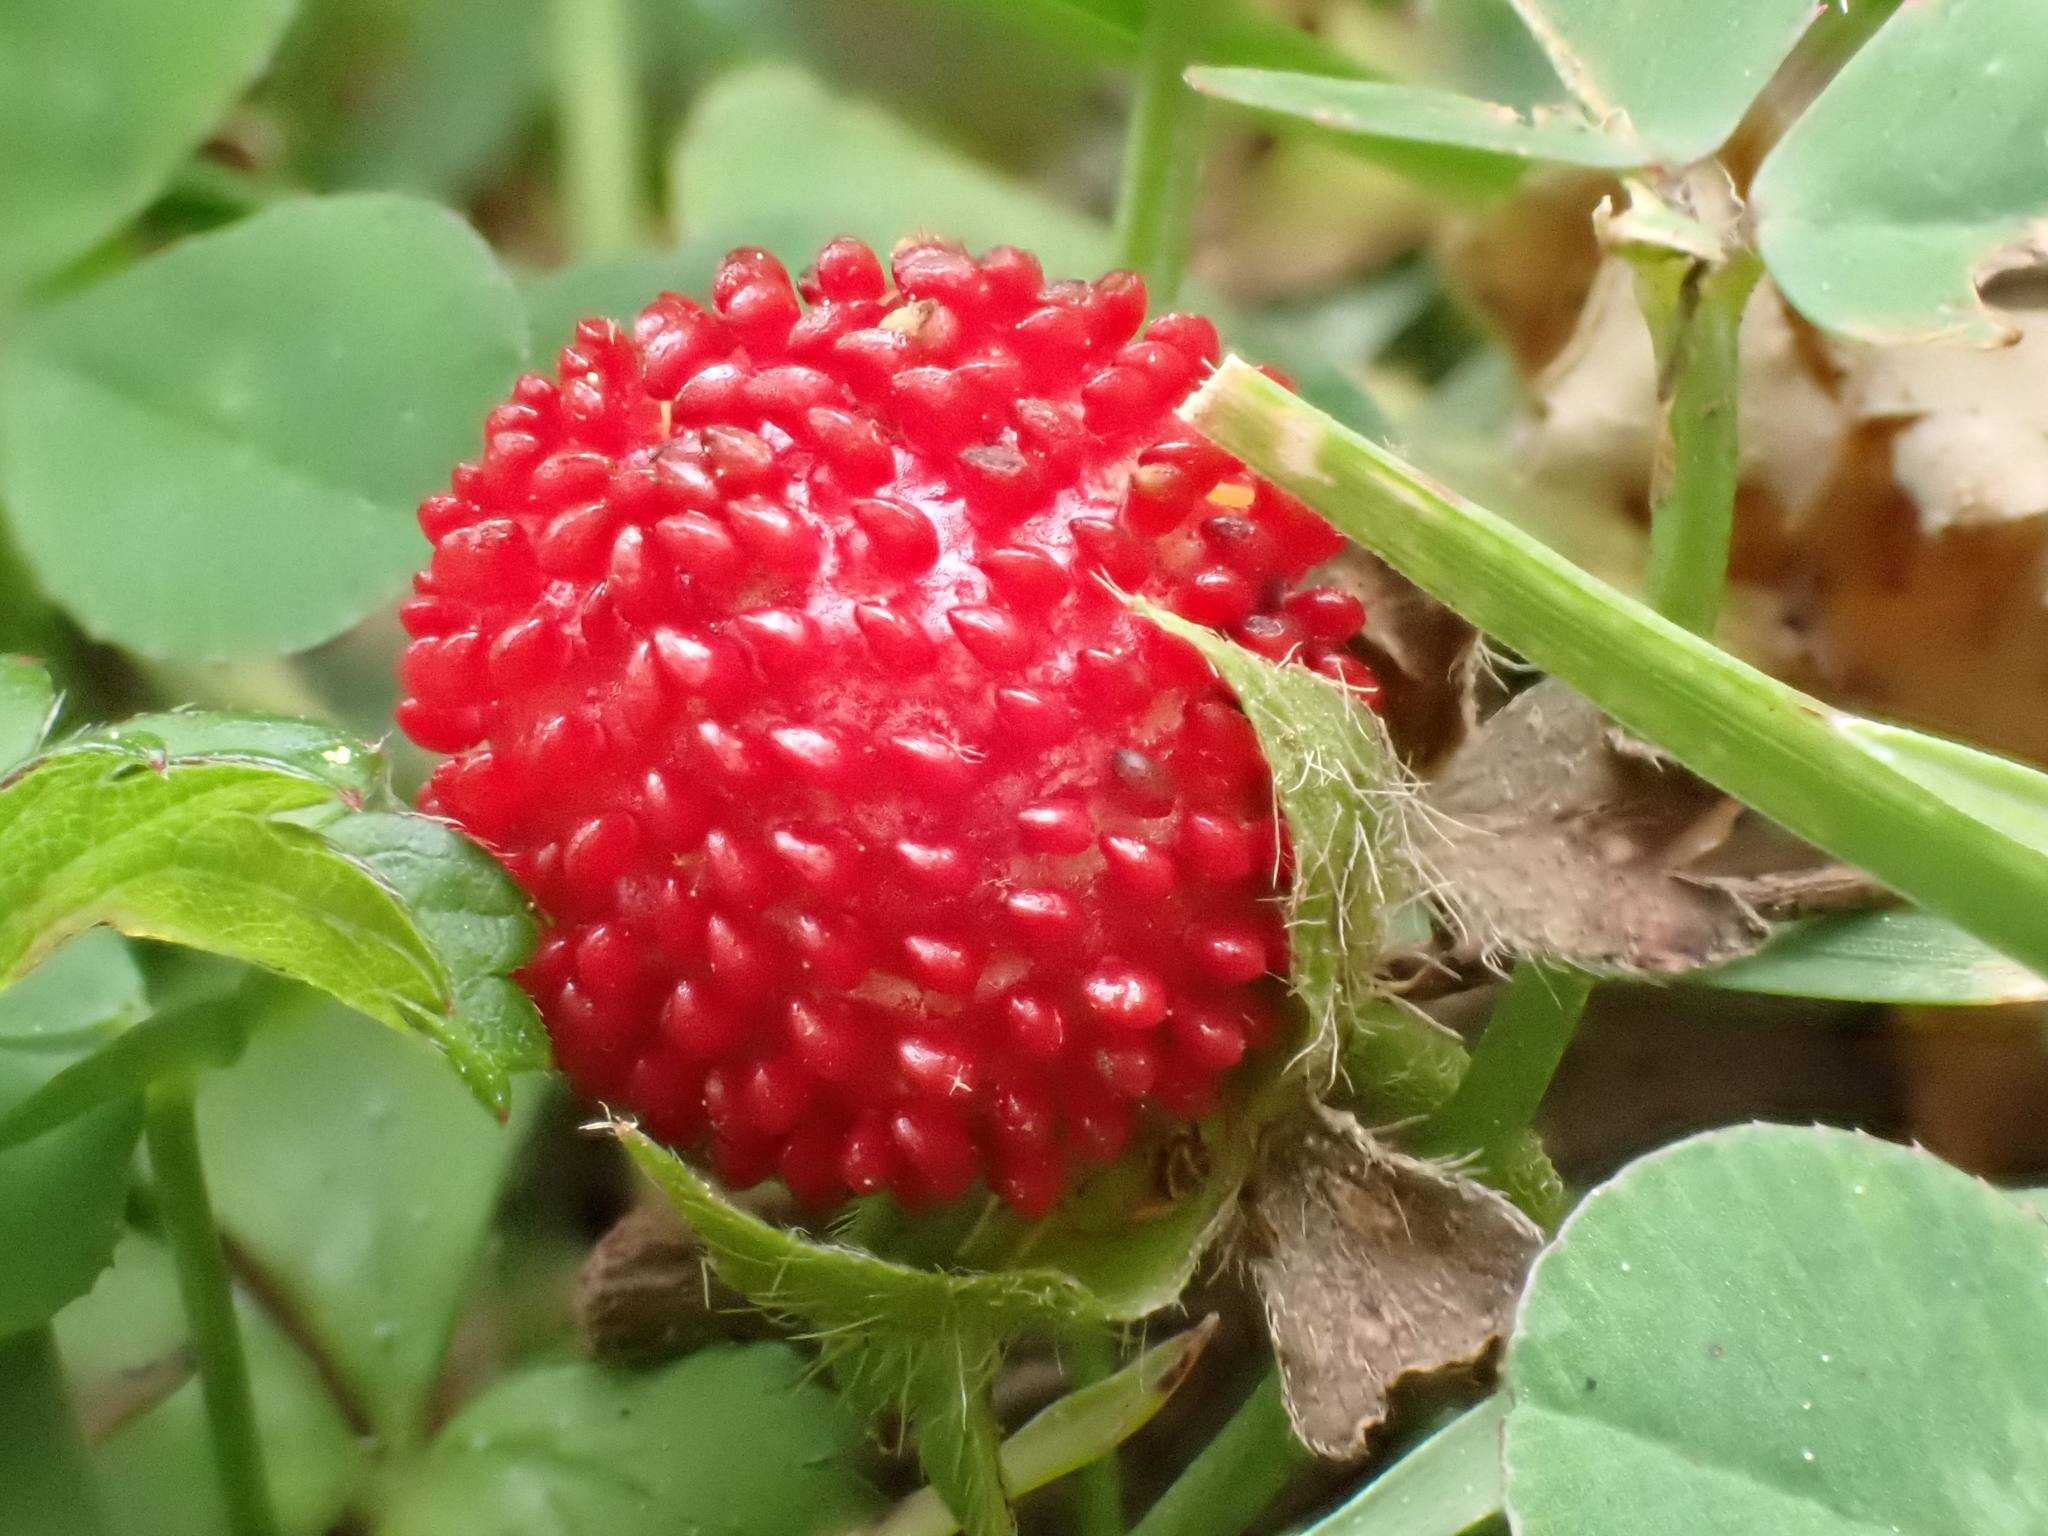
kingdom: Plantae
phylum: Tracheophyta
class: Magnoliopsida
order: Rosales
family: Rosaceae
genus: Potentilla
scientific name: Potentilla indica
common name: Yellow-flowered strawberry
